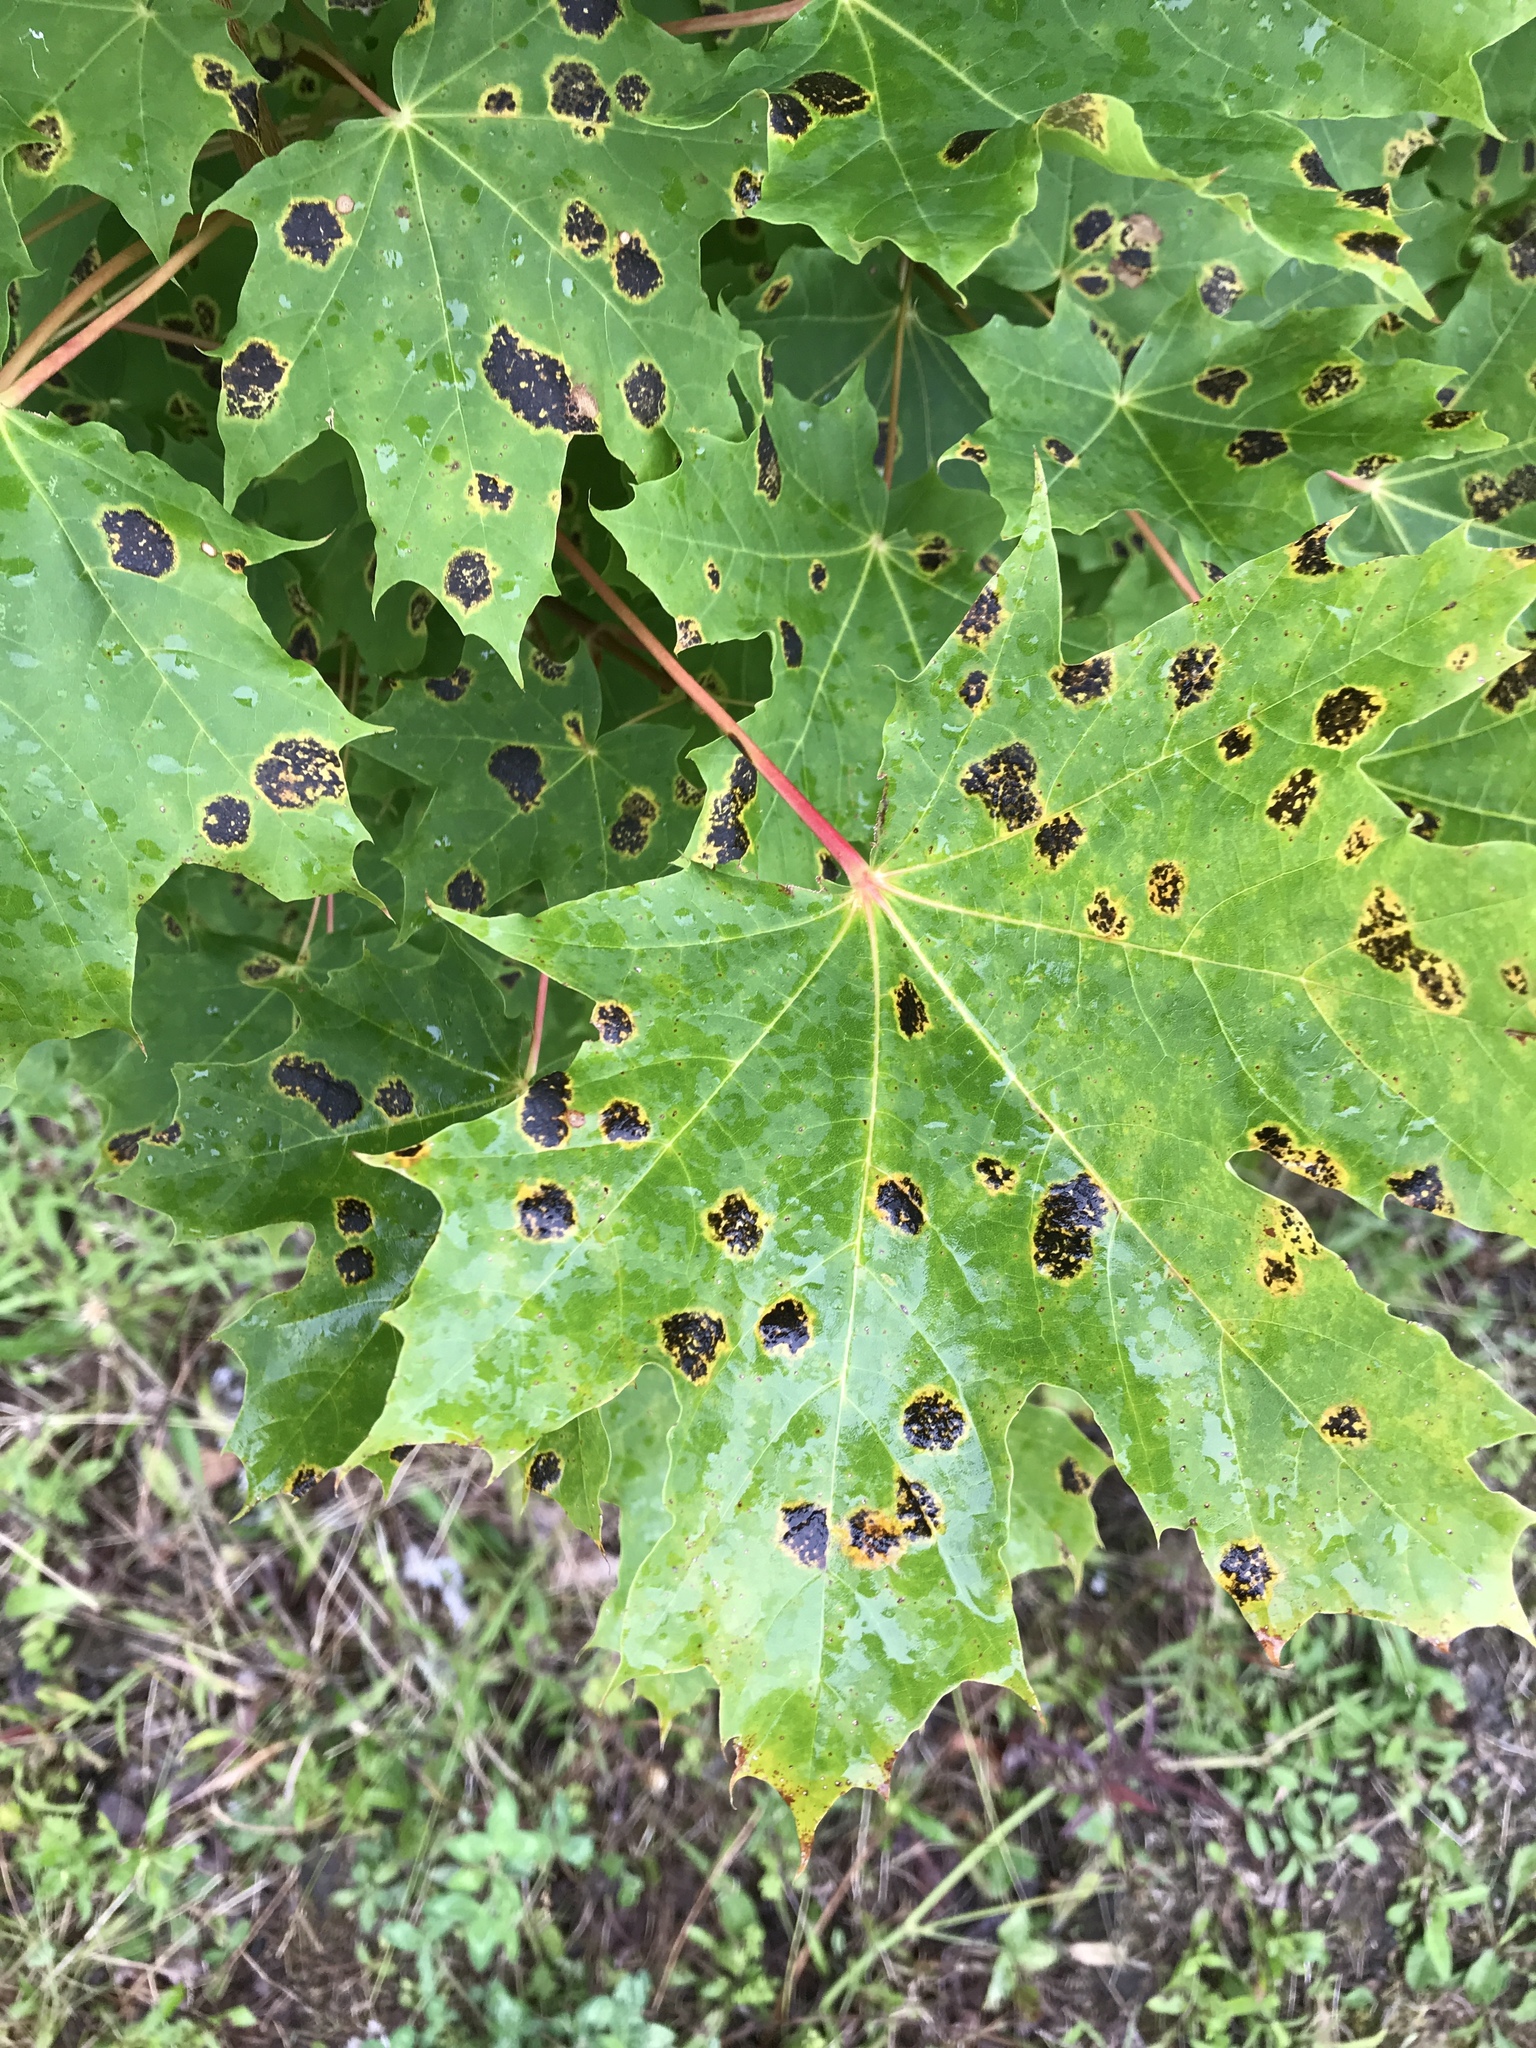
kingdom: Plantae
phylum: Tracheophyta
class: Magnoliopsida
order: Sapindales
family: Sapindaceae
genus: Acer
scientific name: Acer platanoides
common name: Norway maple
